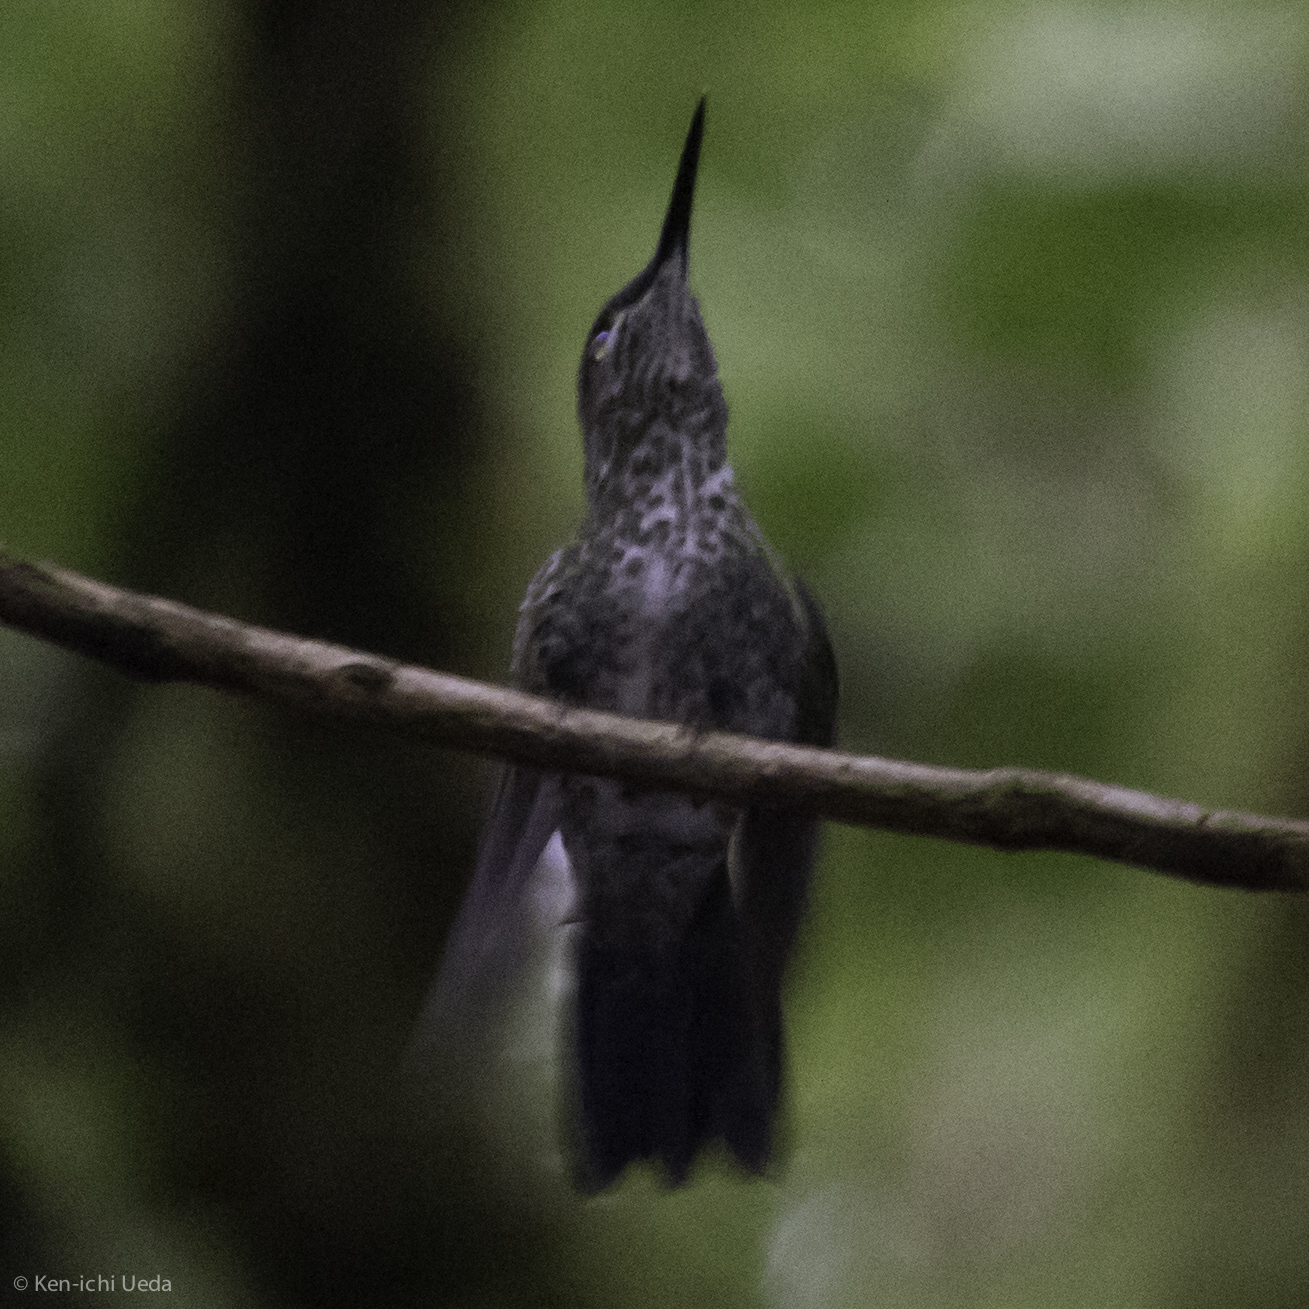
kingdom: Animalia
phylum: Chordata
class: Aves
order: Apodiformes
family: Trochilidae
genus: Heliodoxa
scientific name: Heliodoxa jacula
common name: Green-crowned brilliant
